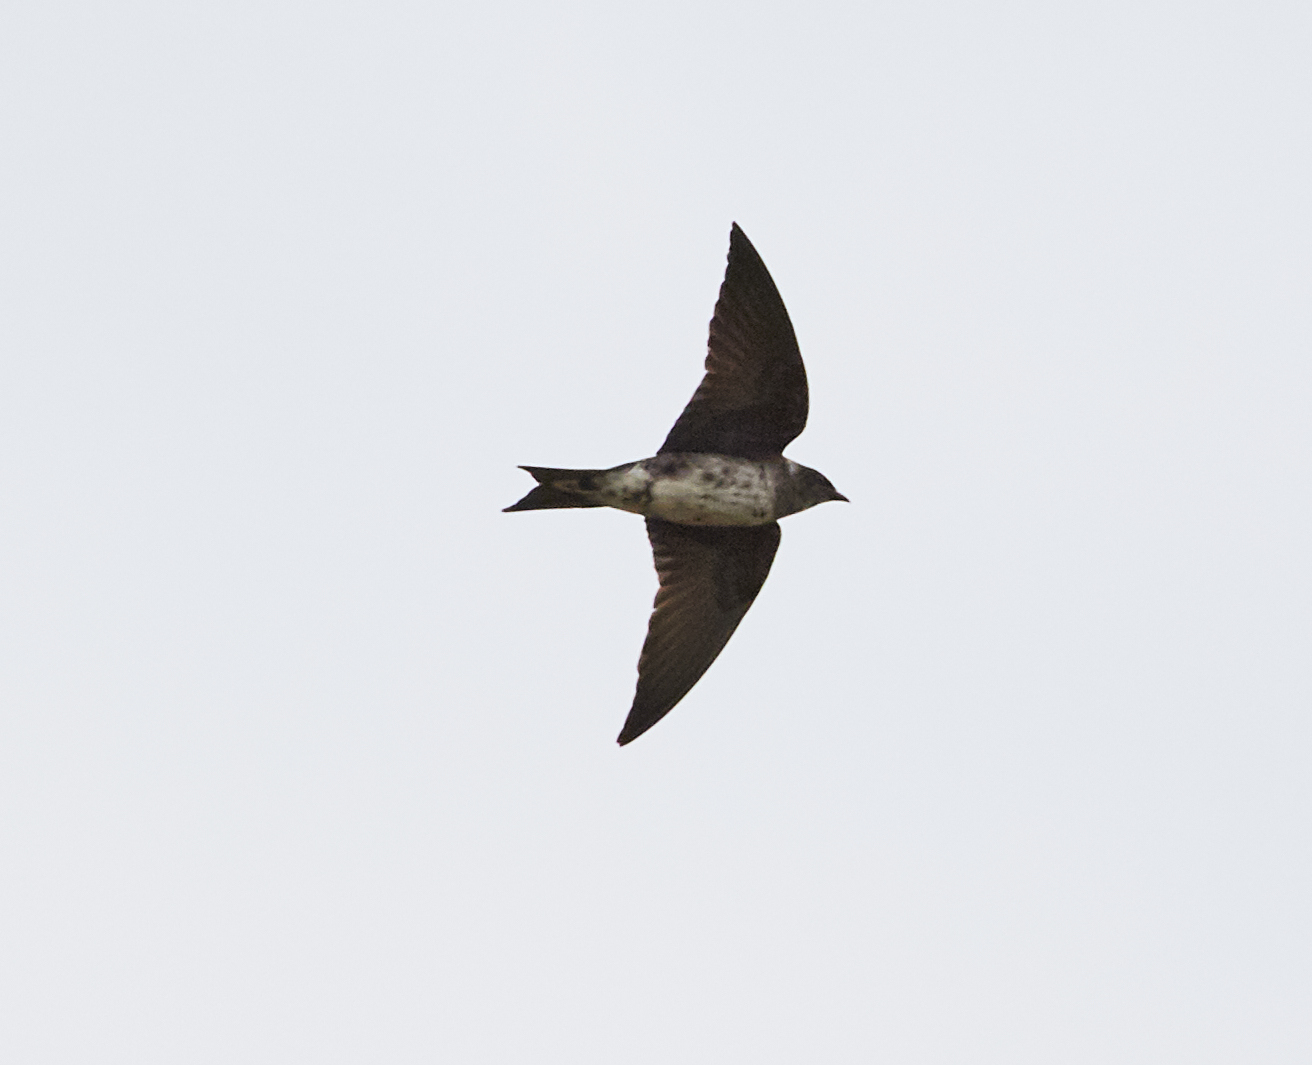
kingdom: Animalia
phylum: Chordata
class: Aves
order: Passeriformes
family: Hirundinidae
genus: Progne
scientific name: Progne subis
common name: Purple martin
